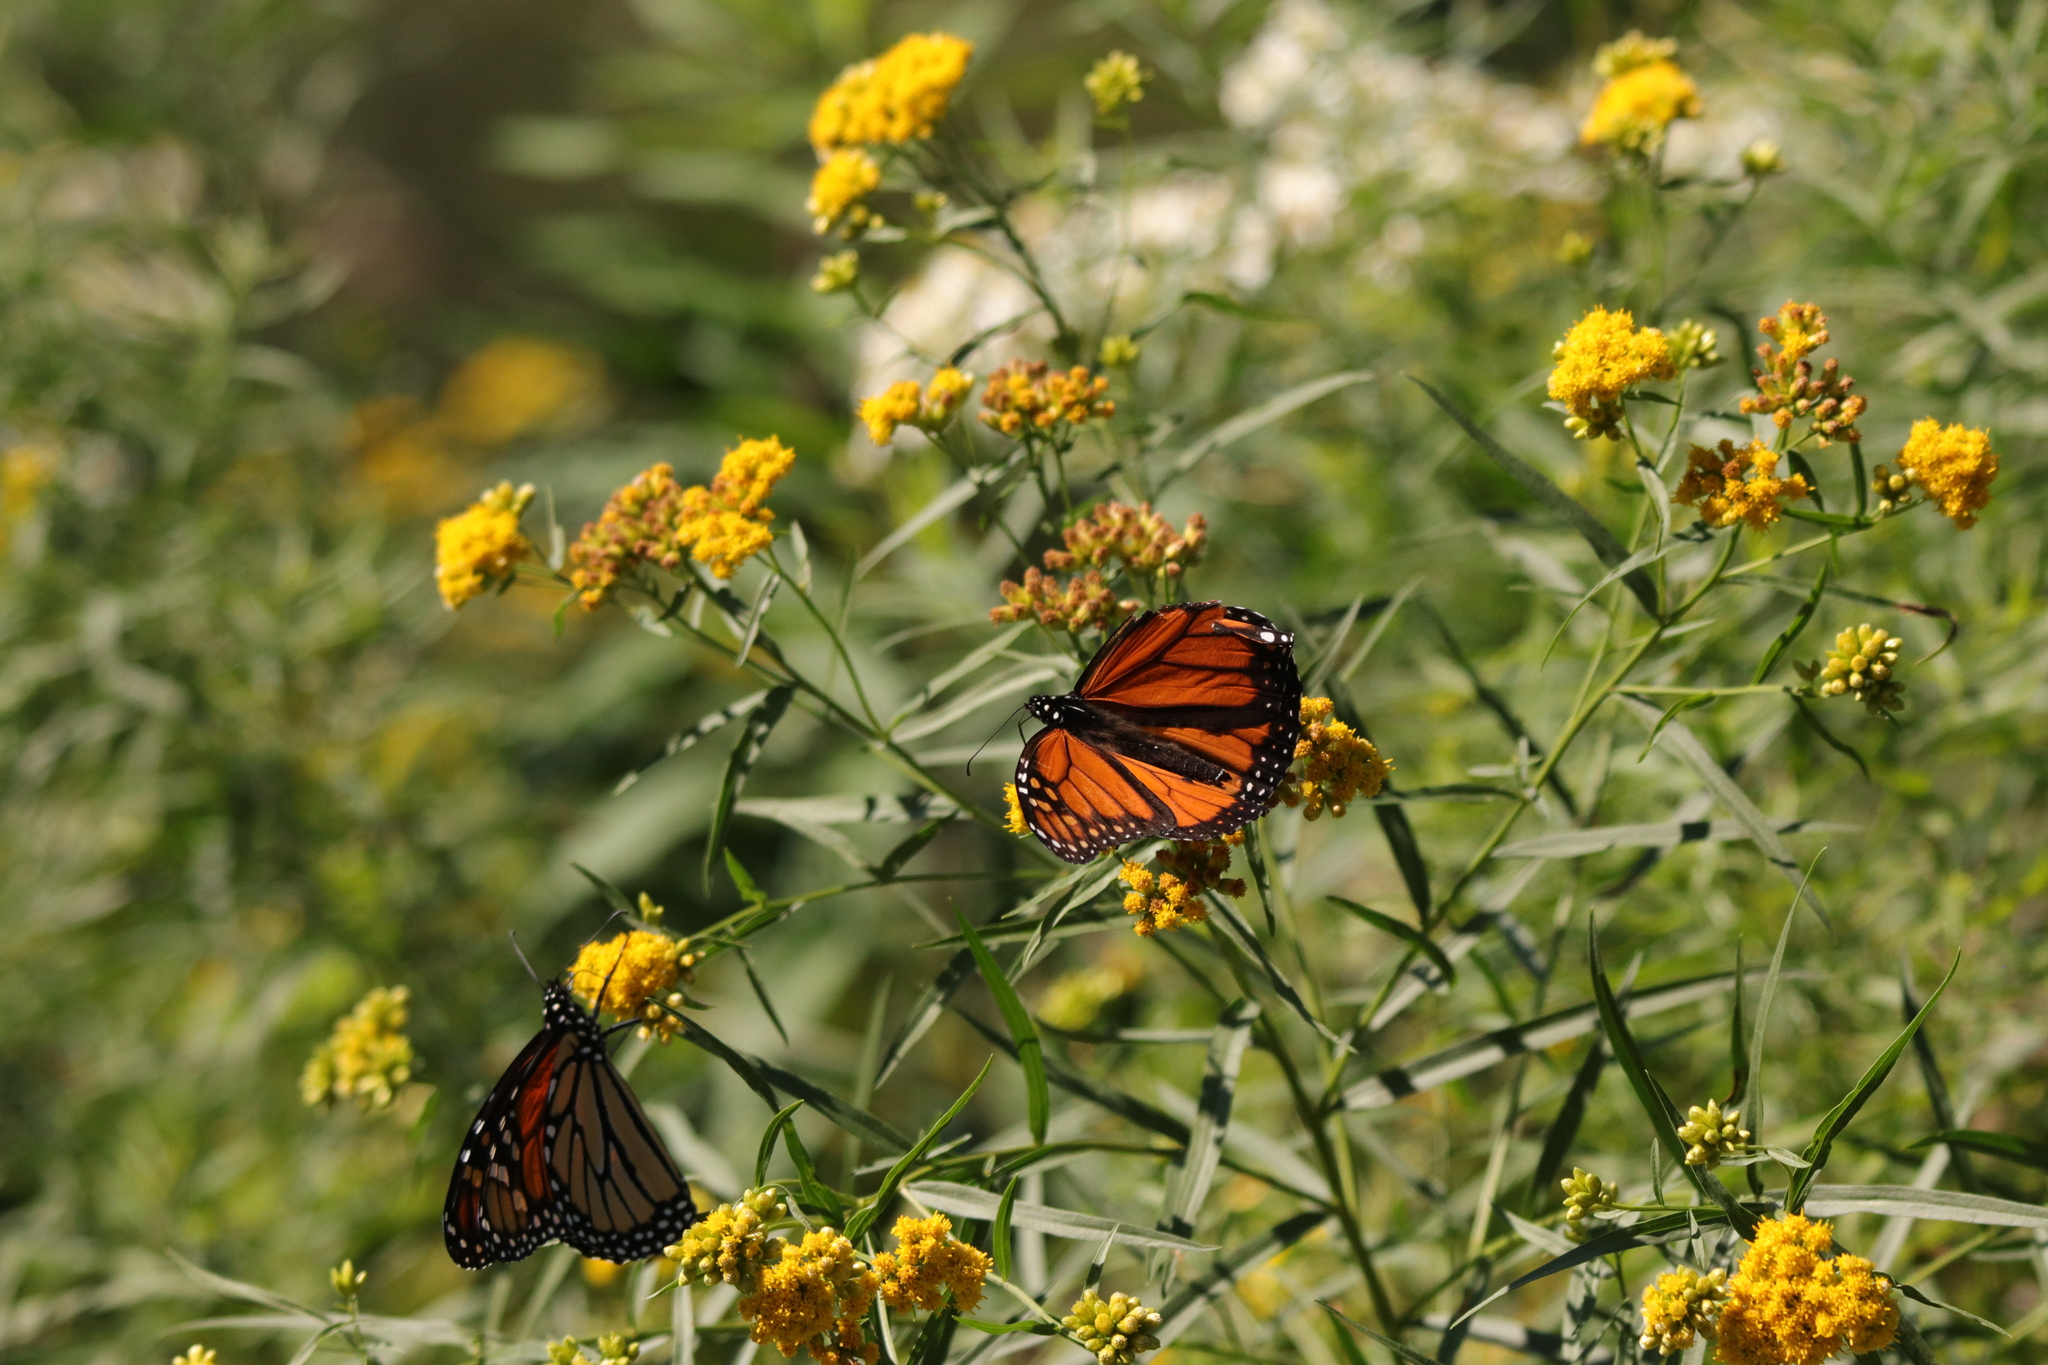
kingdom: Animalia
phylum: Arthropoda
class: Insecta
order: Lepidoptera
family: Nymphalidae
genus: Danaus
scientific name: Danaus plexippus
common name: Monarch
